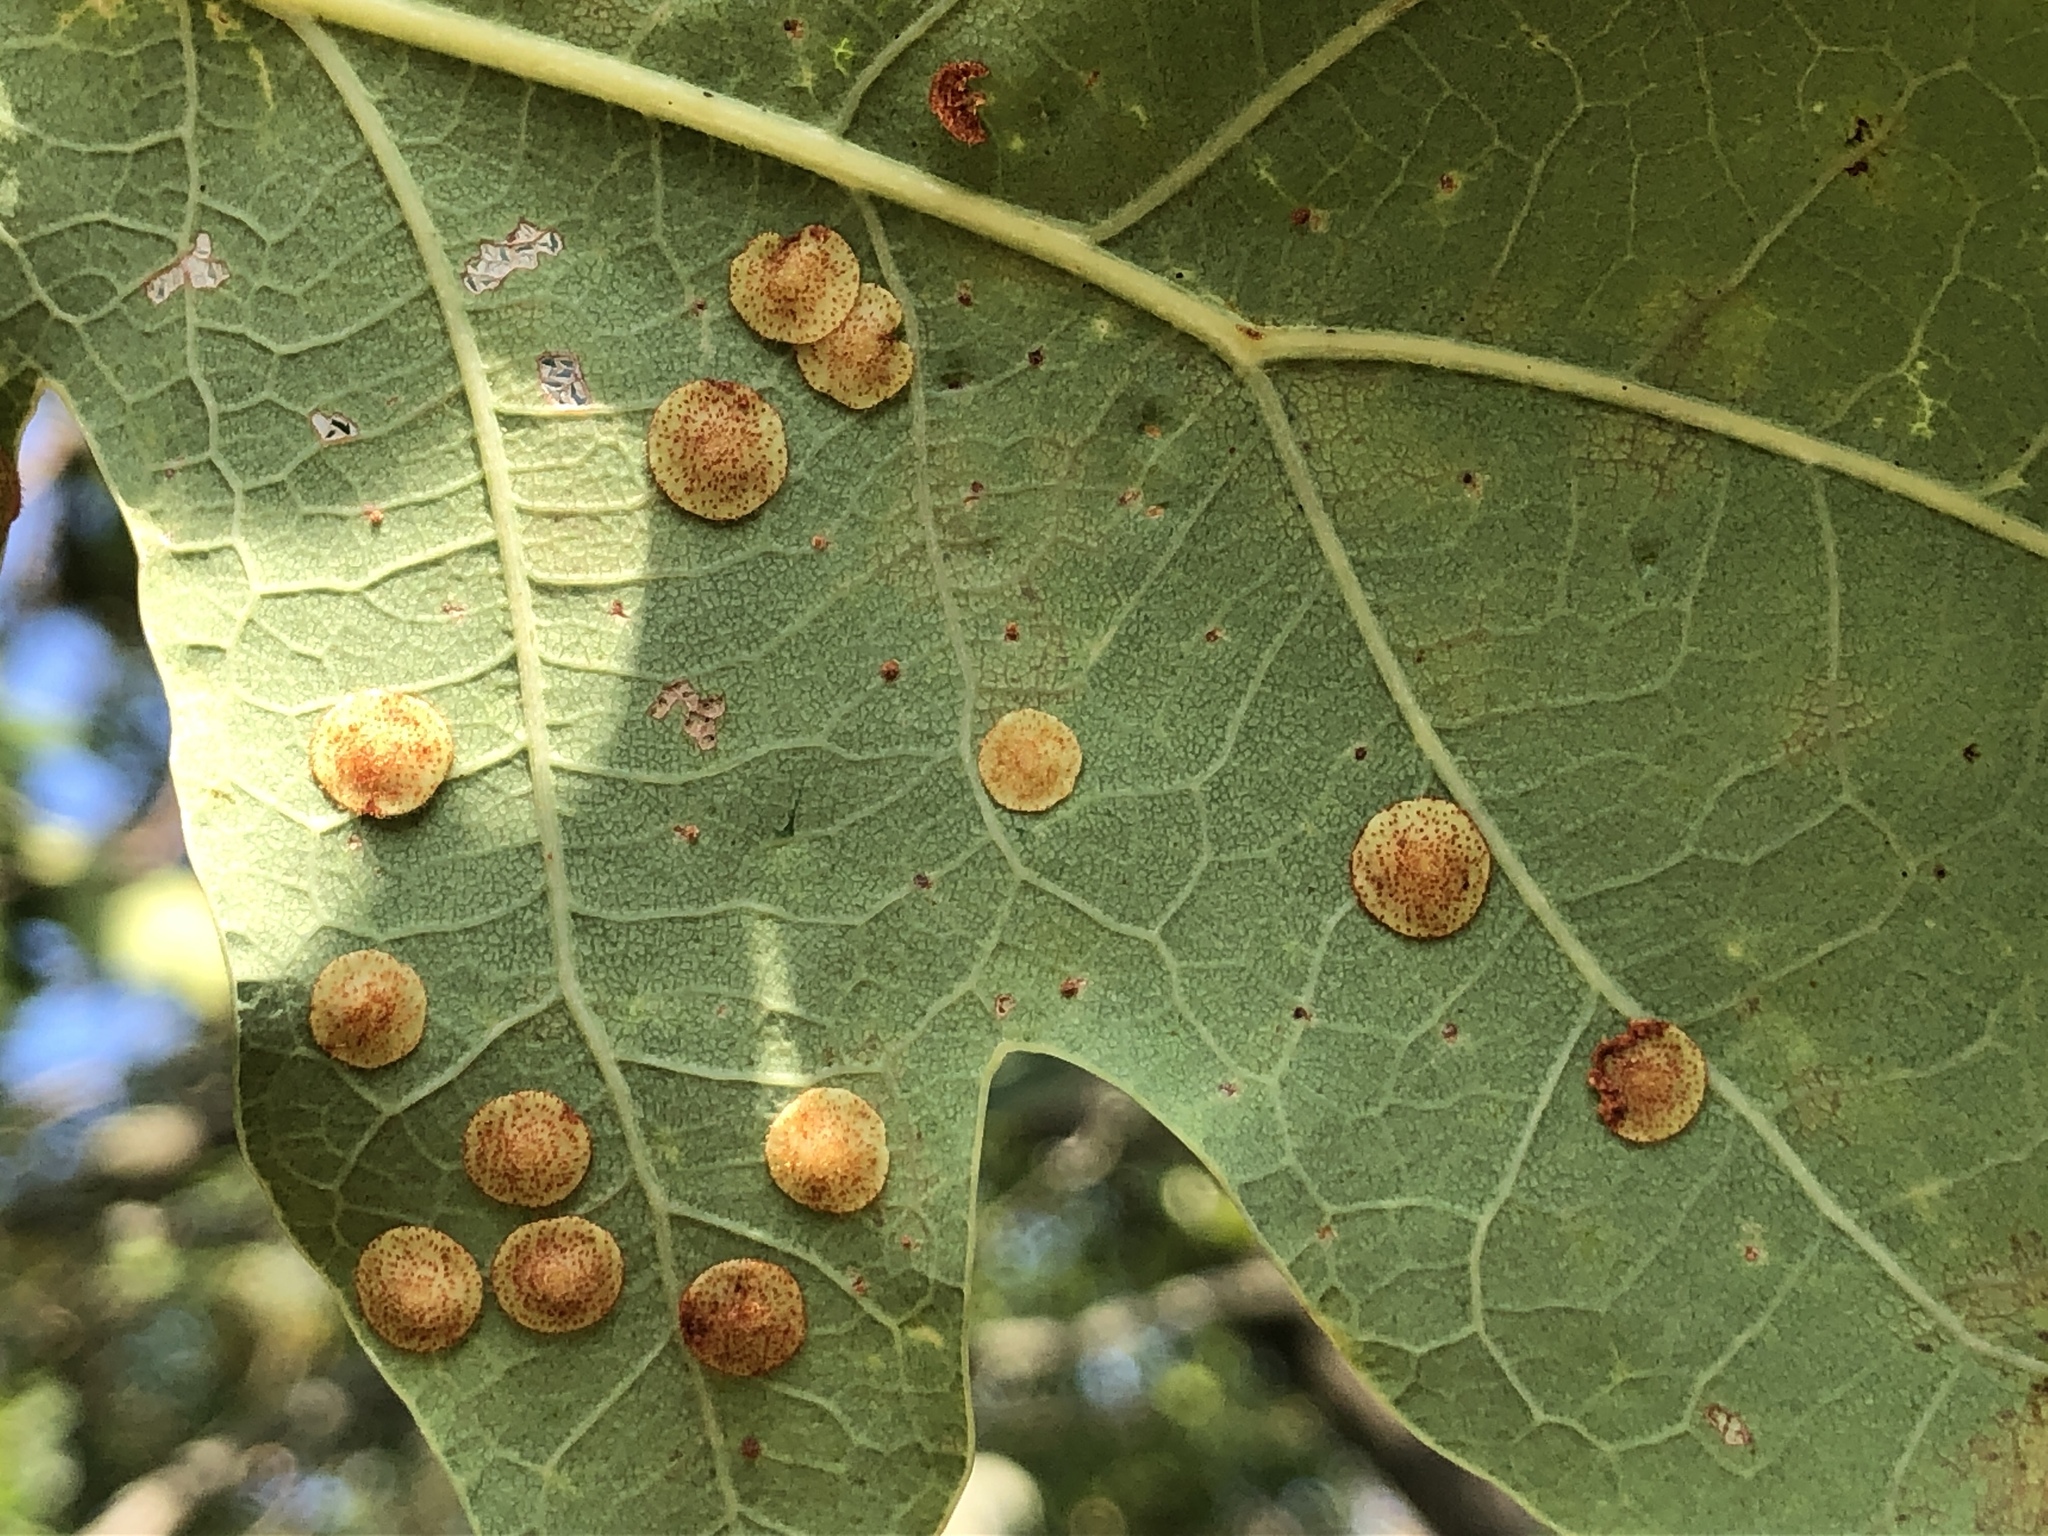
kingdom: Animalia
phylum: Arthropoda
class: Insecta
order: Hymenoptera
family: Cynipidae
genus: Neuroterus
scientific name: Neuroterus quercusbaccarum
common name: Common spangle gall
